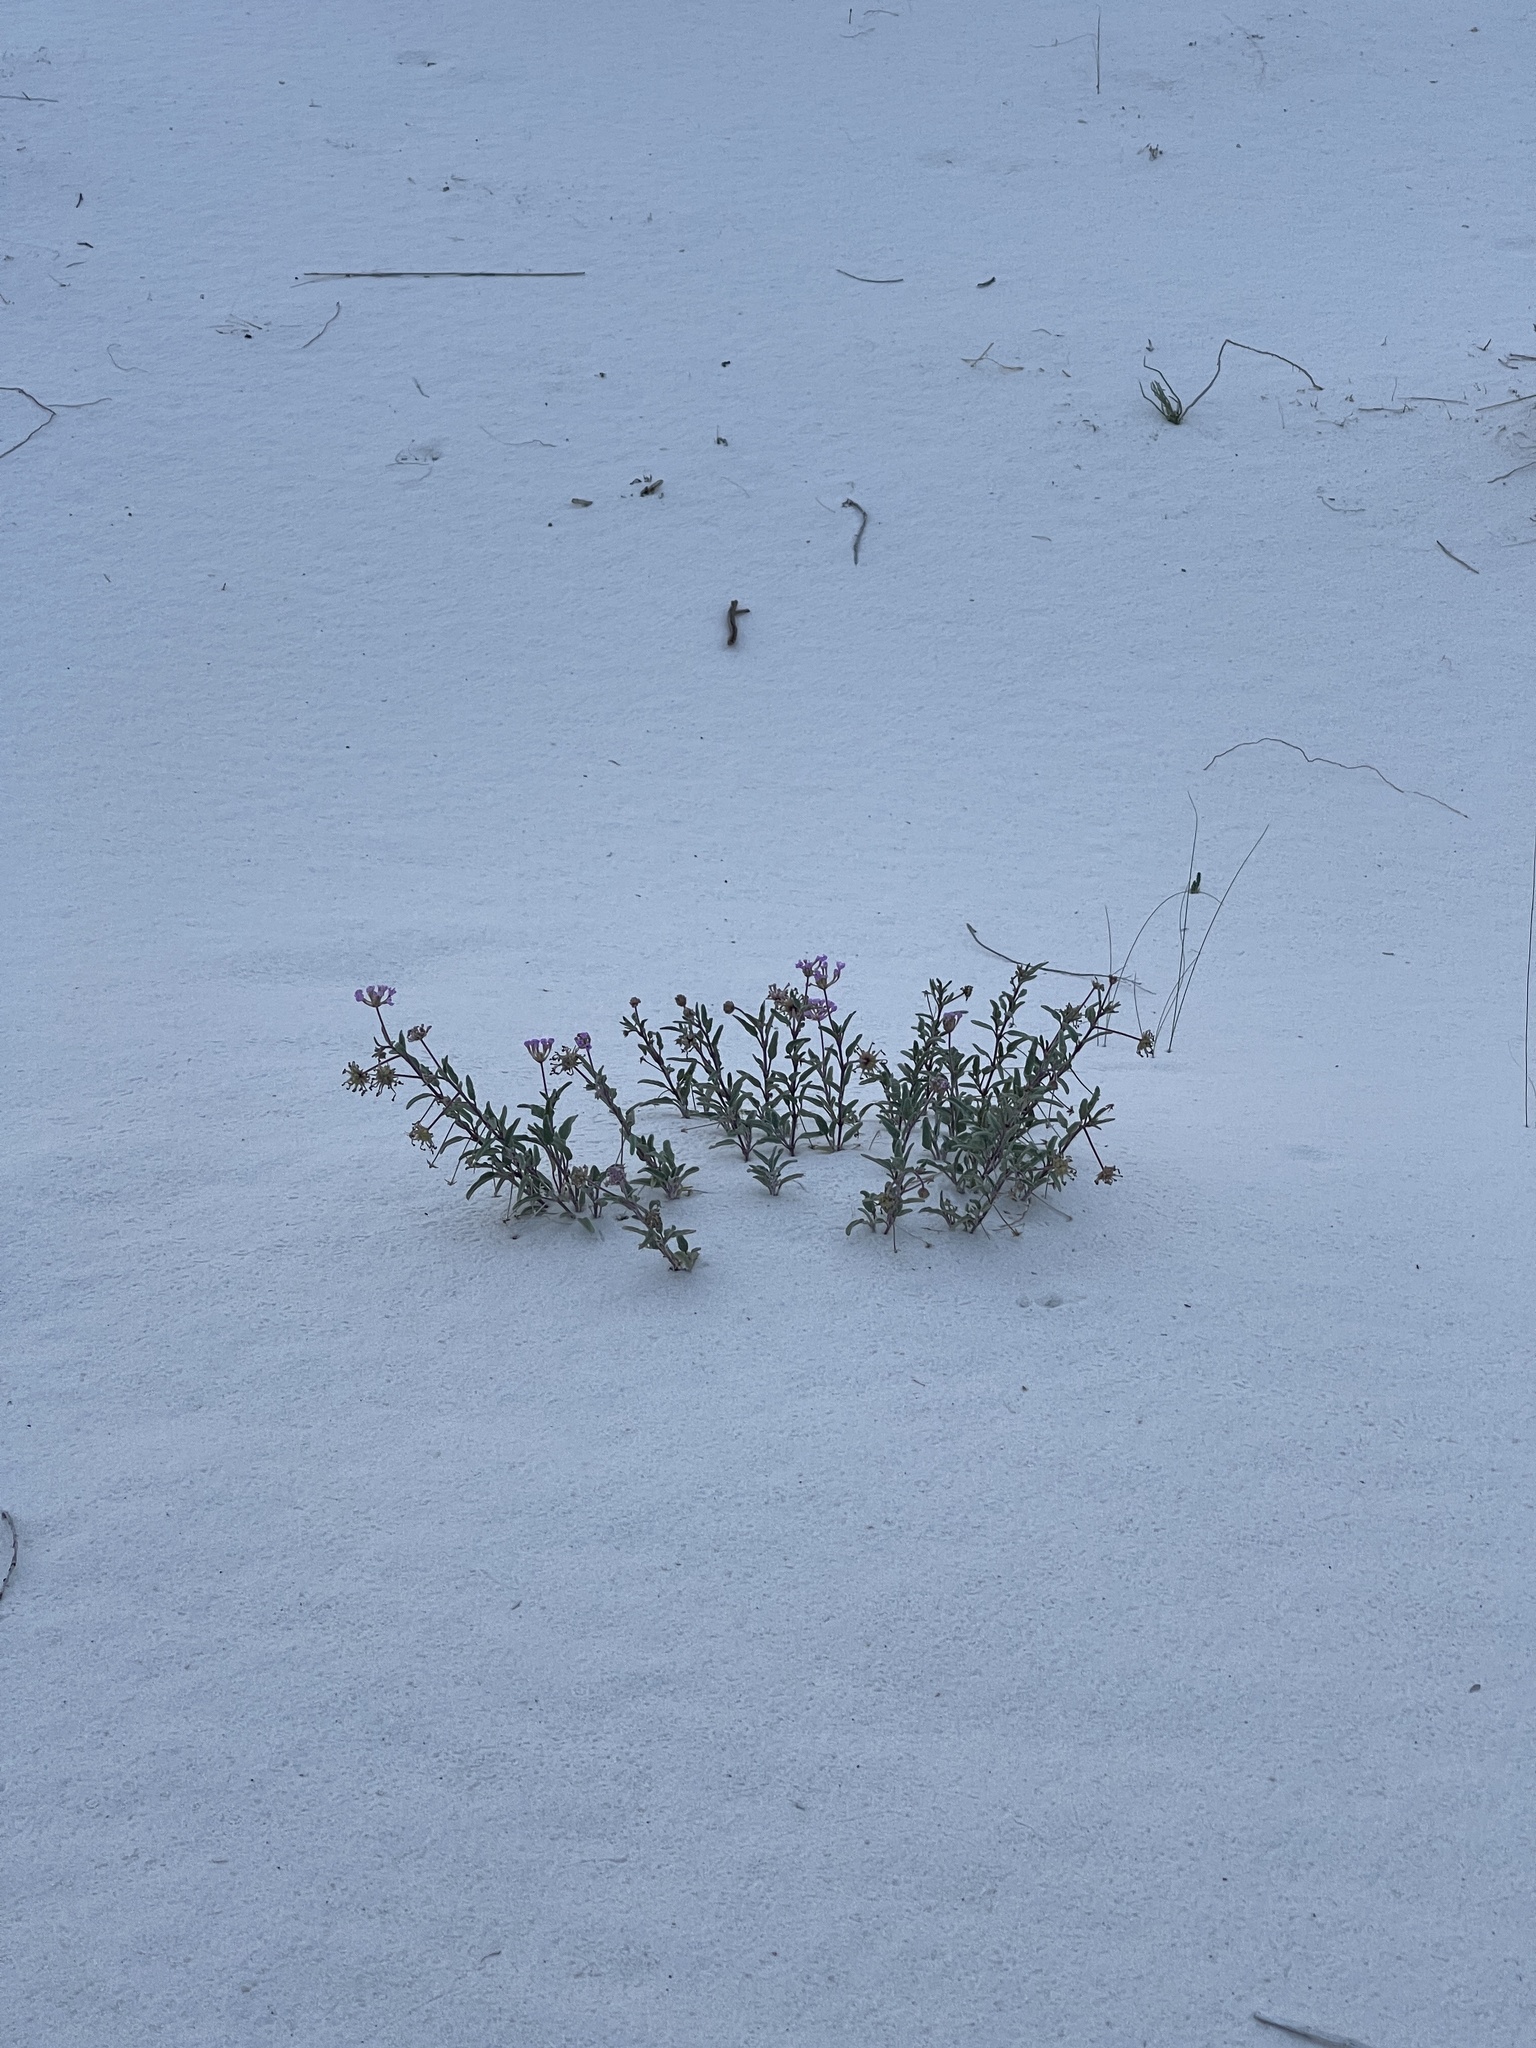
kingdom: Plantae
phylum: Tracheophyta
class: Magnoliopsida
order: Caryophyllales
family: Nyctaginaceae
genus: Abronia
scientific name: Abronia angustifolia
